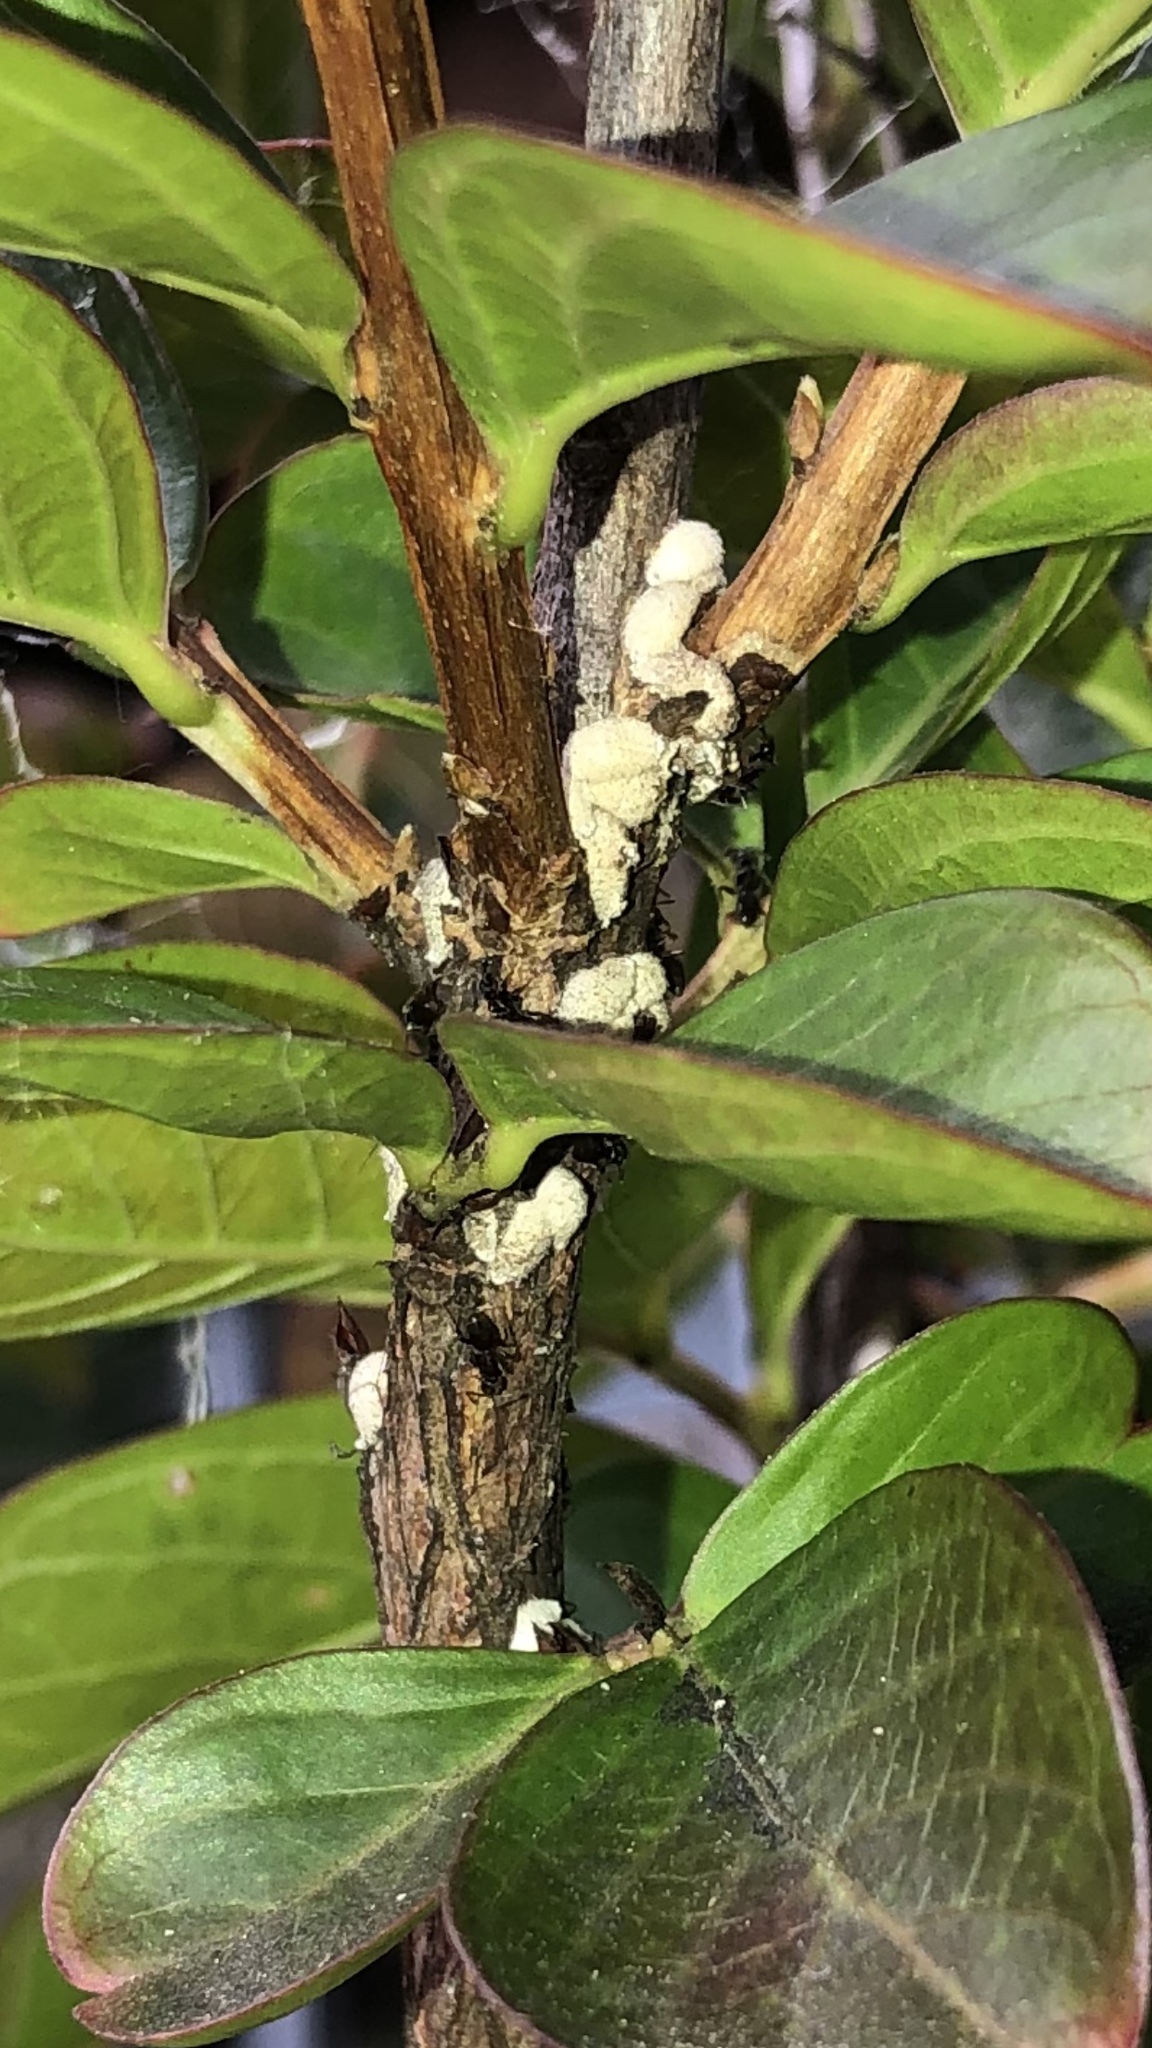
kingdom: Animalia
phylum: Arthropoda
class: Insecta
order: Hymenoptera
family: Formicidae
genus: Tapinoma
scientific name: Tapinoma sessile
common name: Odorous house ant
